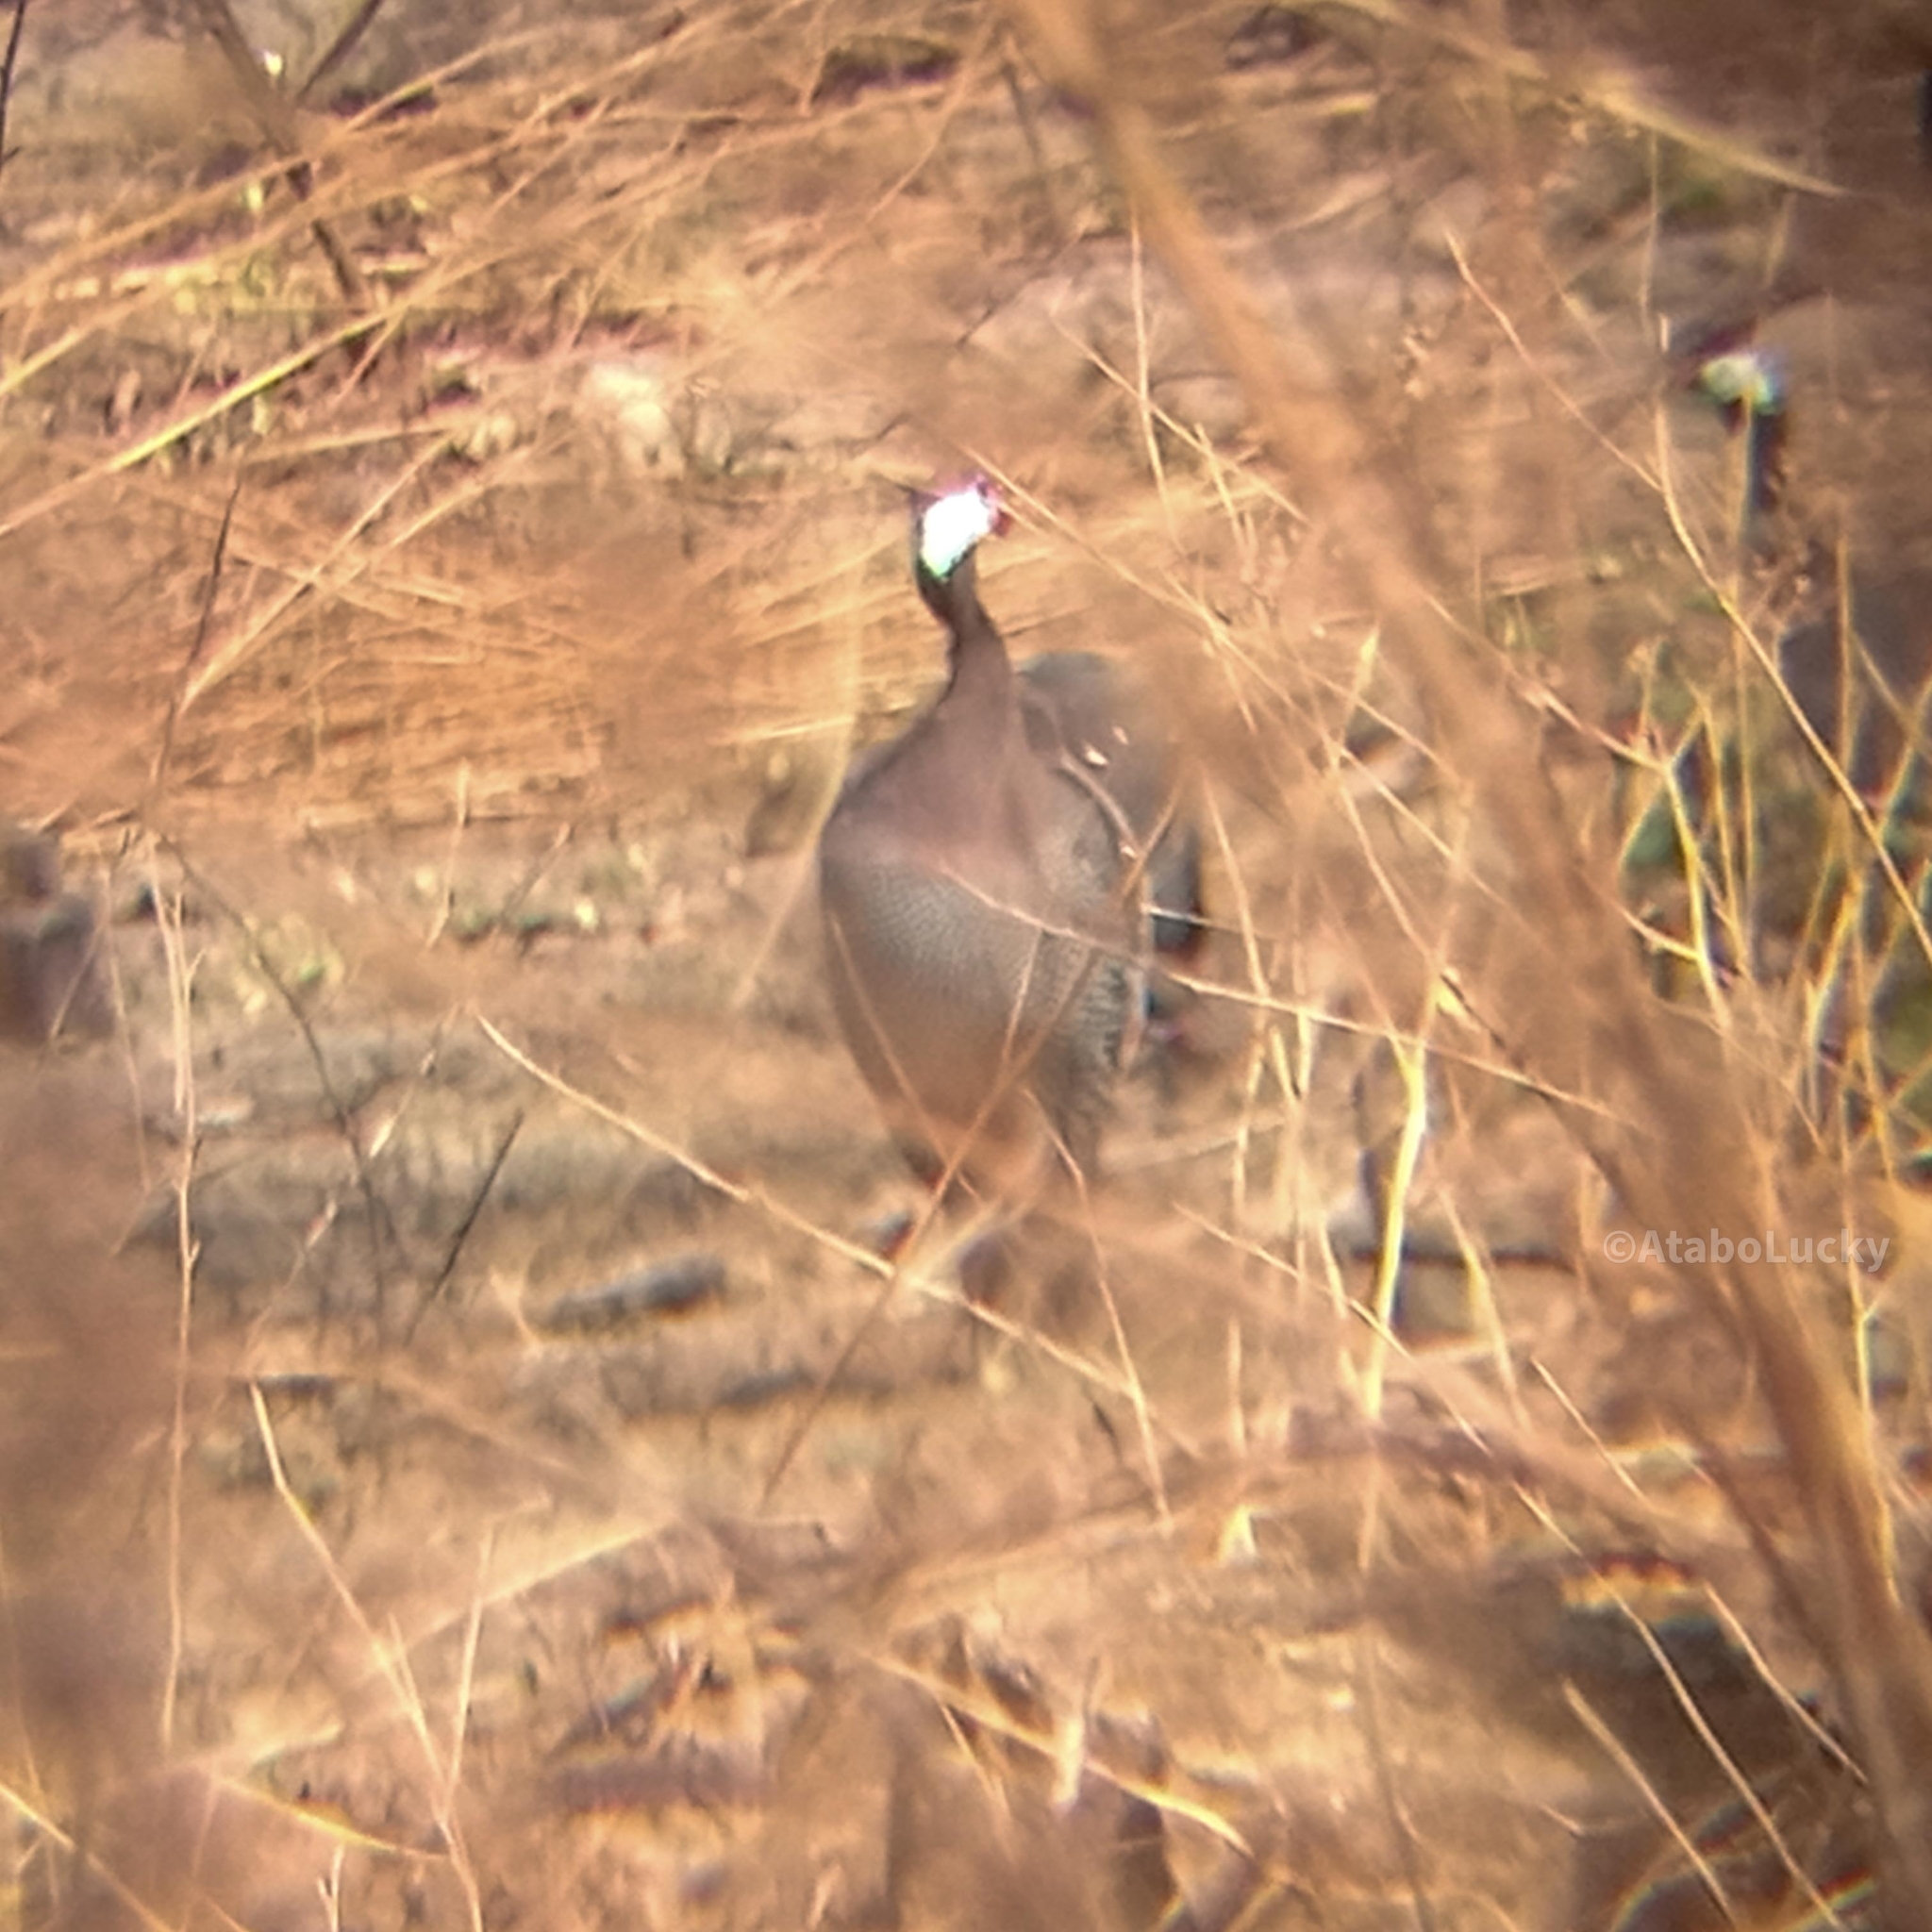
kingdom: Animalia
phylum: Chordata
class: Aves
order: Galliformes
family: Numididae
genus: Numida
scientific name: Numida meleagris
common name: Helmeted guineafowl
